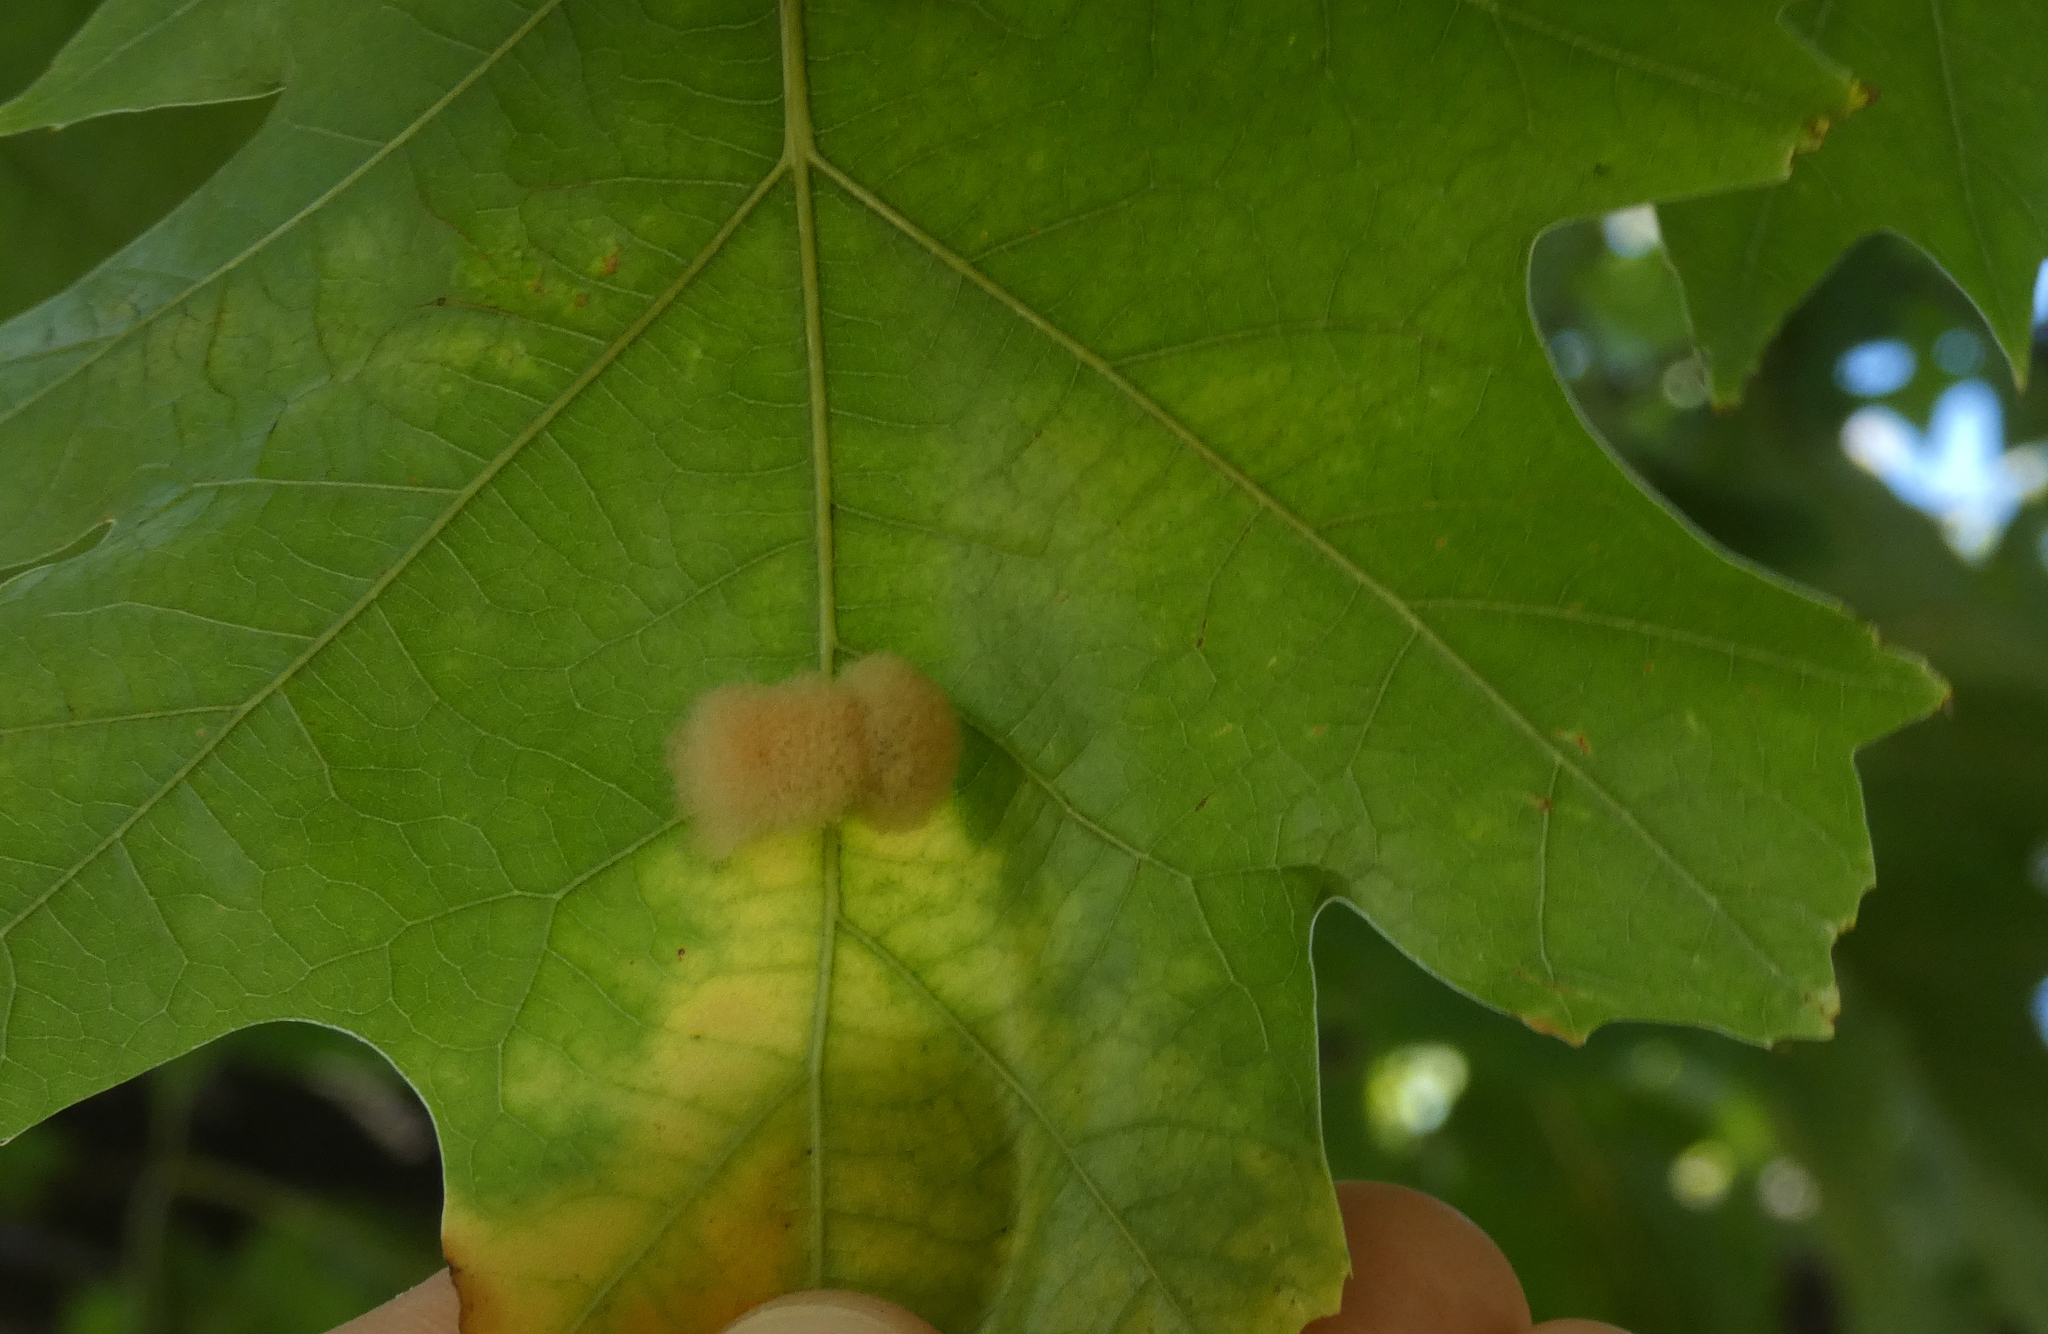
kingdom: Animalia
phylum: Arthropoda
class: Insecta
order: Hymenoptera
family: Cynipidae
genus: Callirhytis
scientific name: Callirhytis
